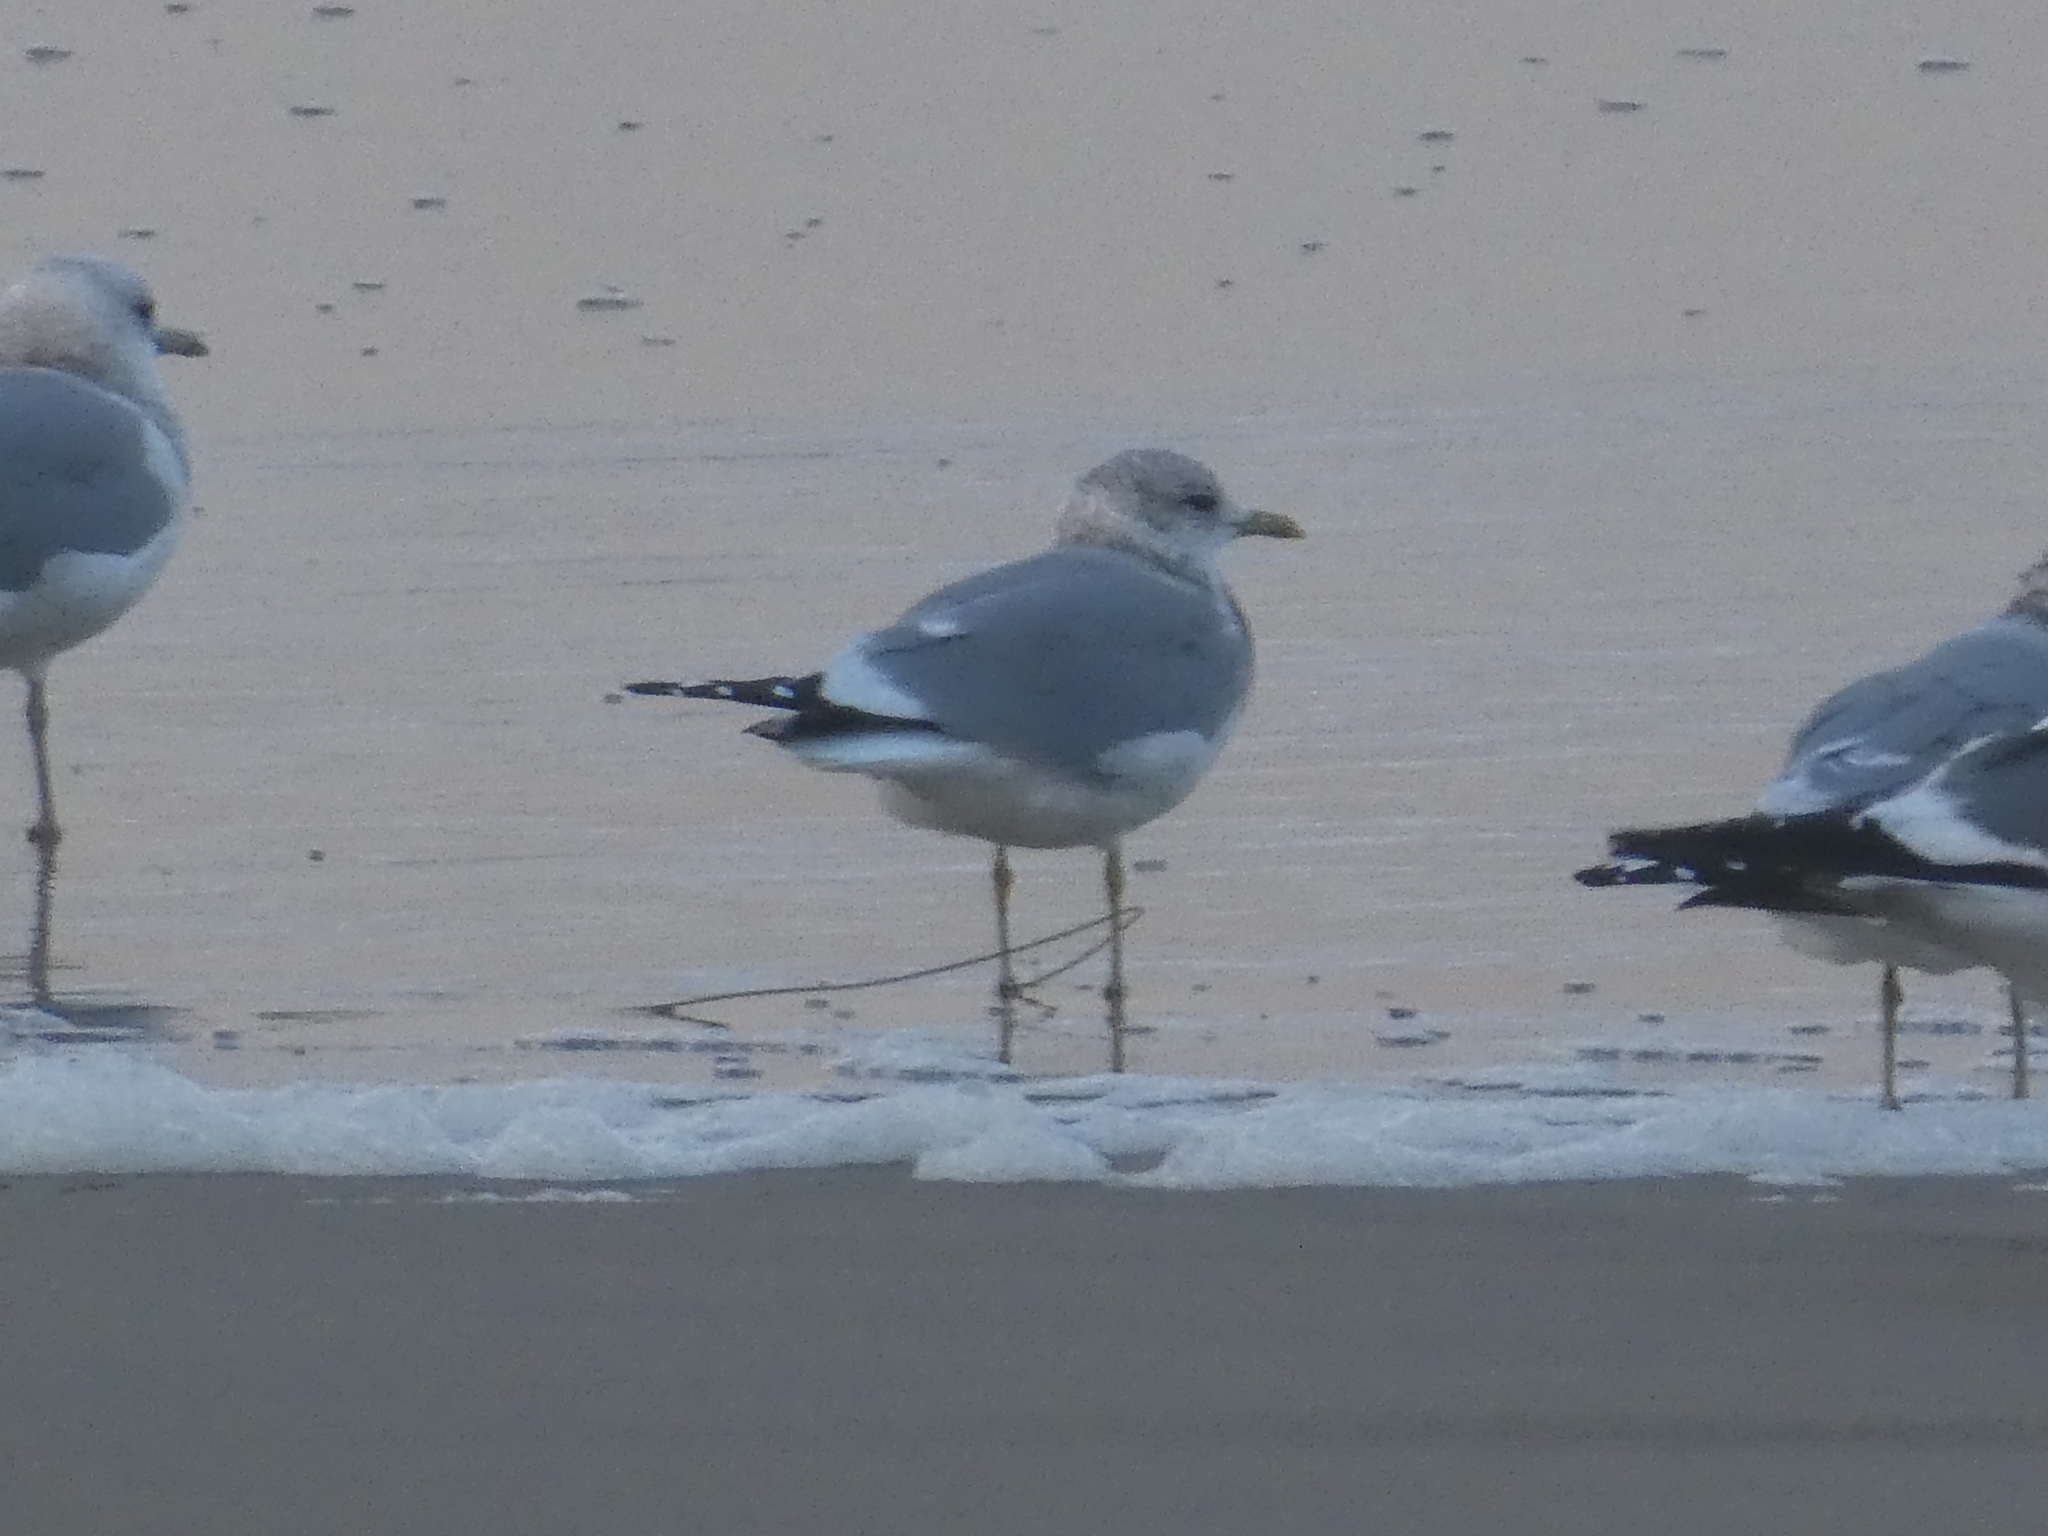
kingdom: Animalia
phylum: Chordata
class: Aves
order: Charadriiformes
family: Laridae
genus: Larus
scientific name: Larus brachyrhynchus
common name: Short-billed gull
